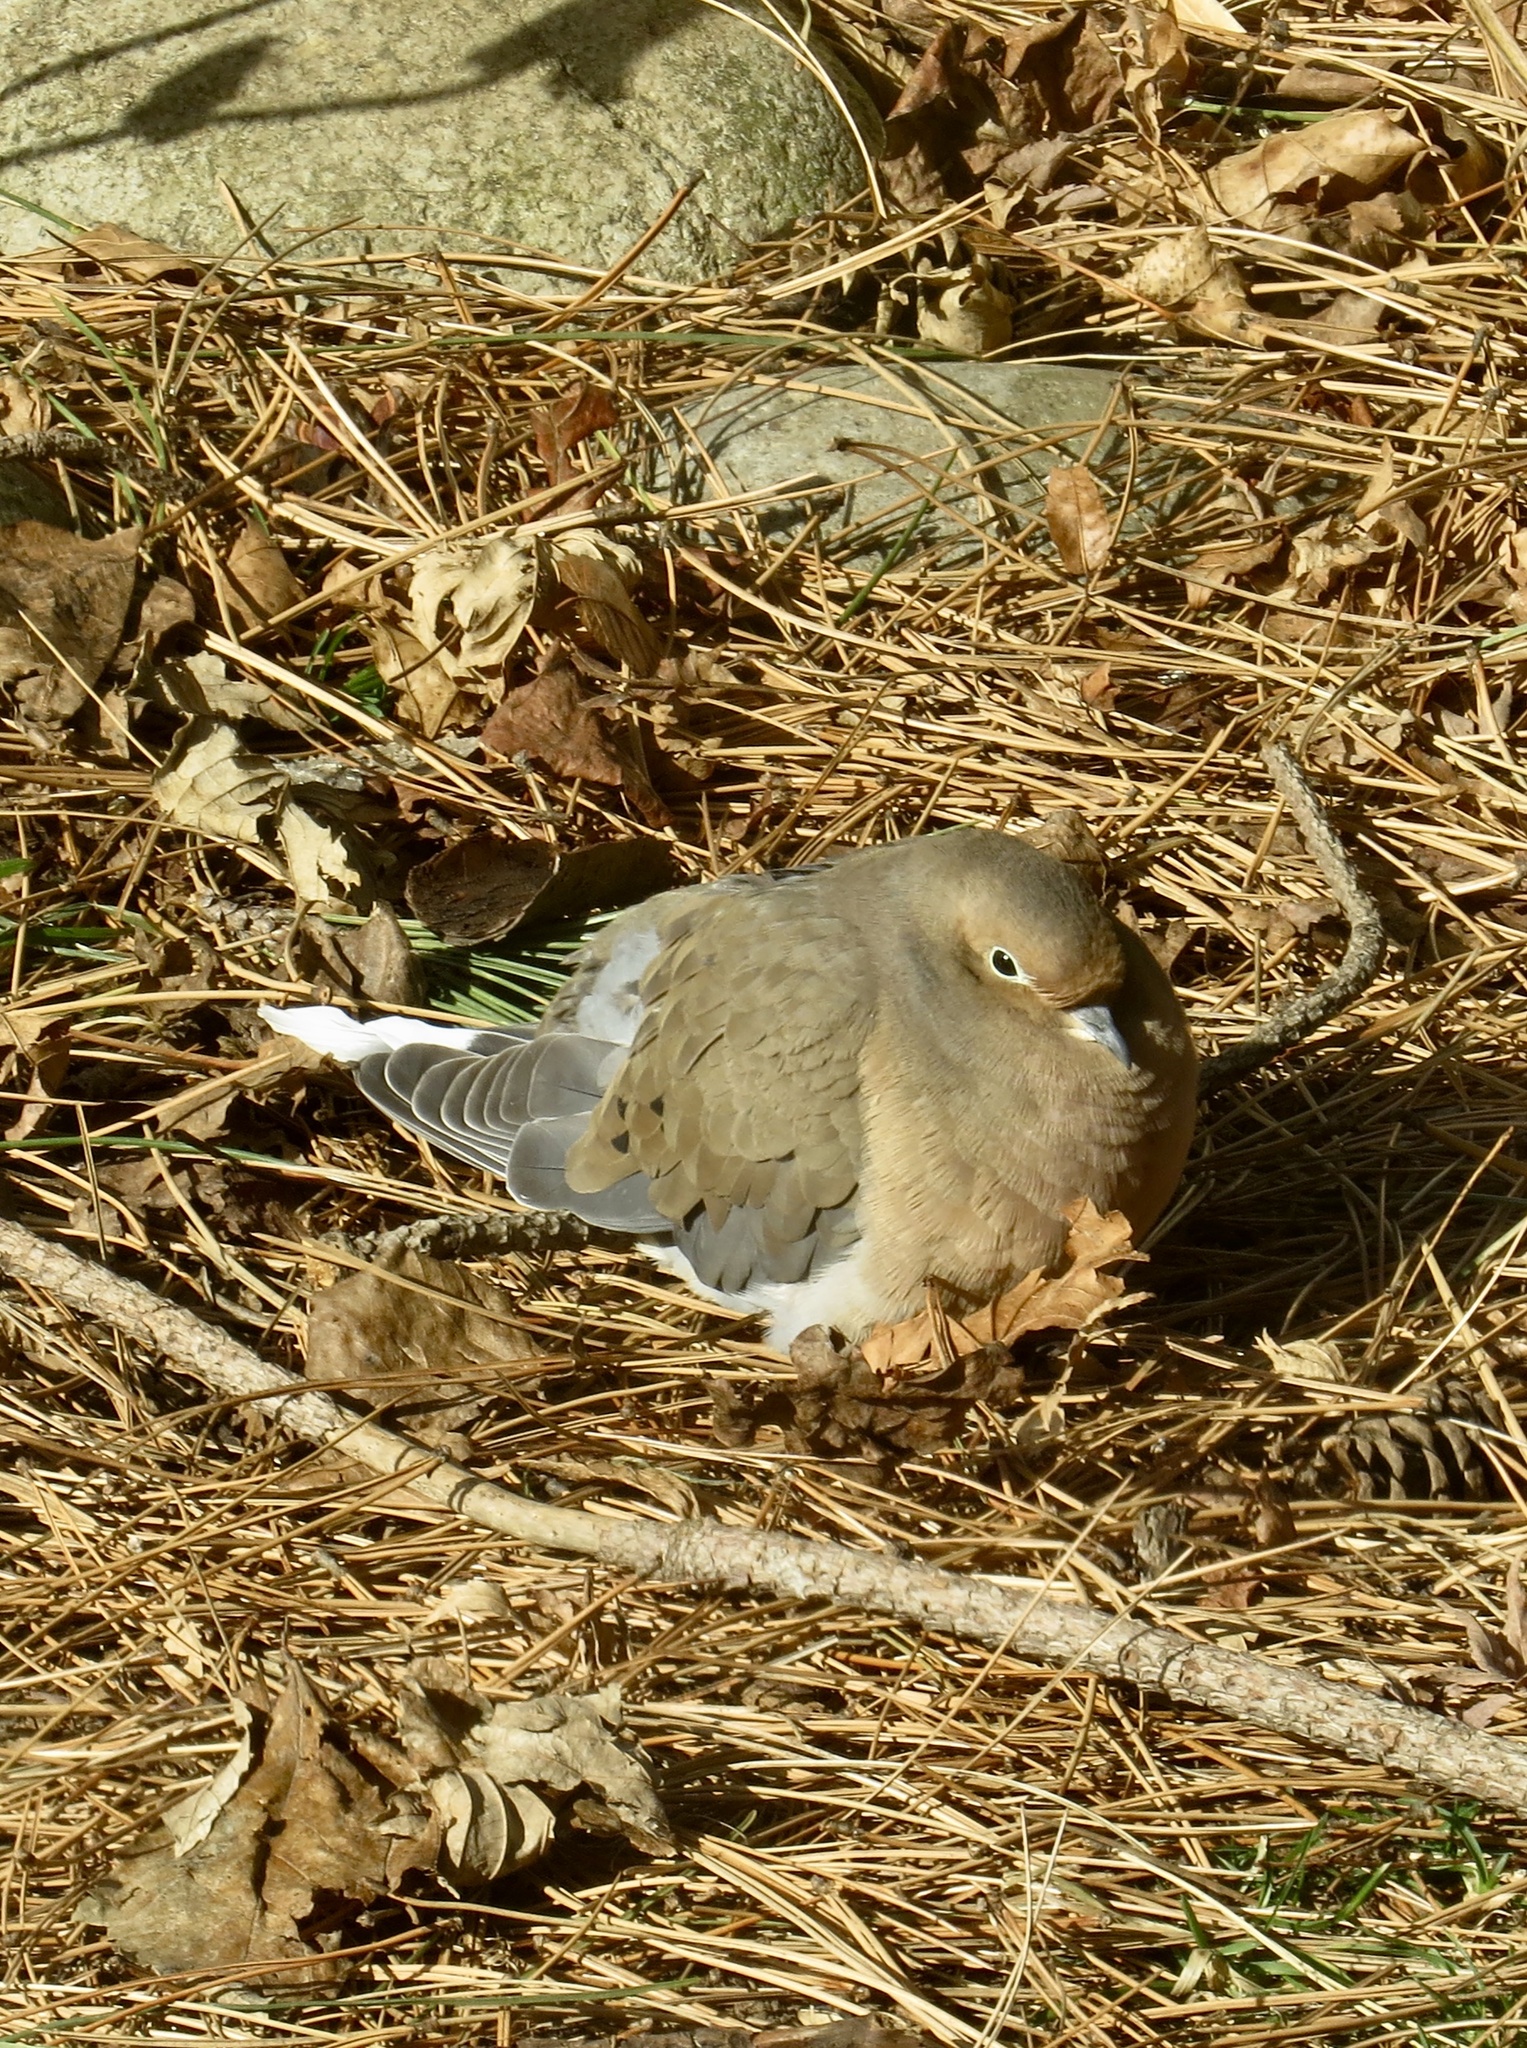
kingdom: Animalia
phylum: Chordata
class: Aves
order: Columbiformes
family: Columbidae
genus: Zenaida
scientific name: Zenaida macroura
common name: Mourning dove
